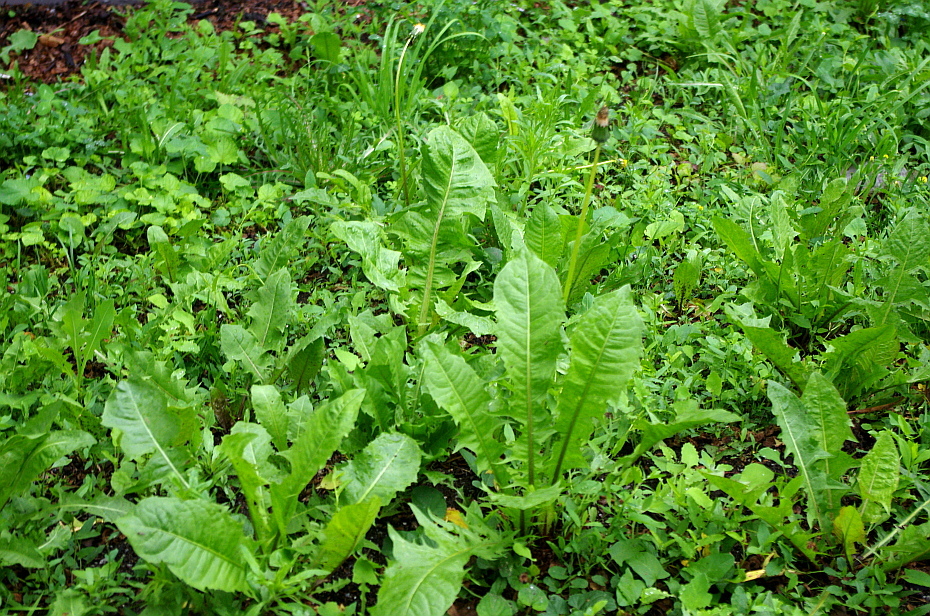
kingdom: Plantae
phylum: Tracheophyta
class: Magnoliopsida
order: Asterales
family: Asteraceae
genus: Taraxacum
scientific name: Taraxacum officinale
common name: Common dandelion
